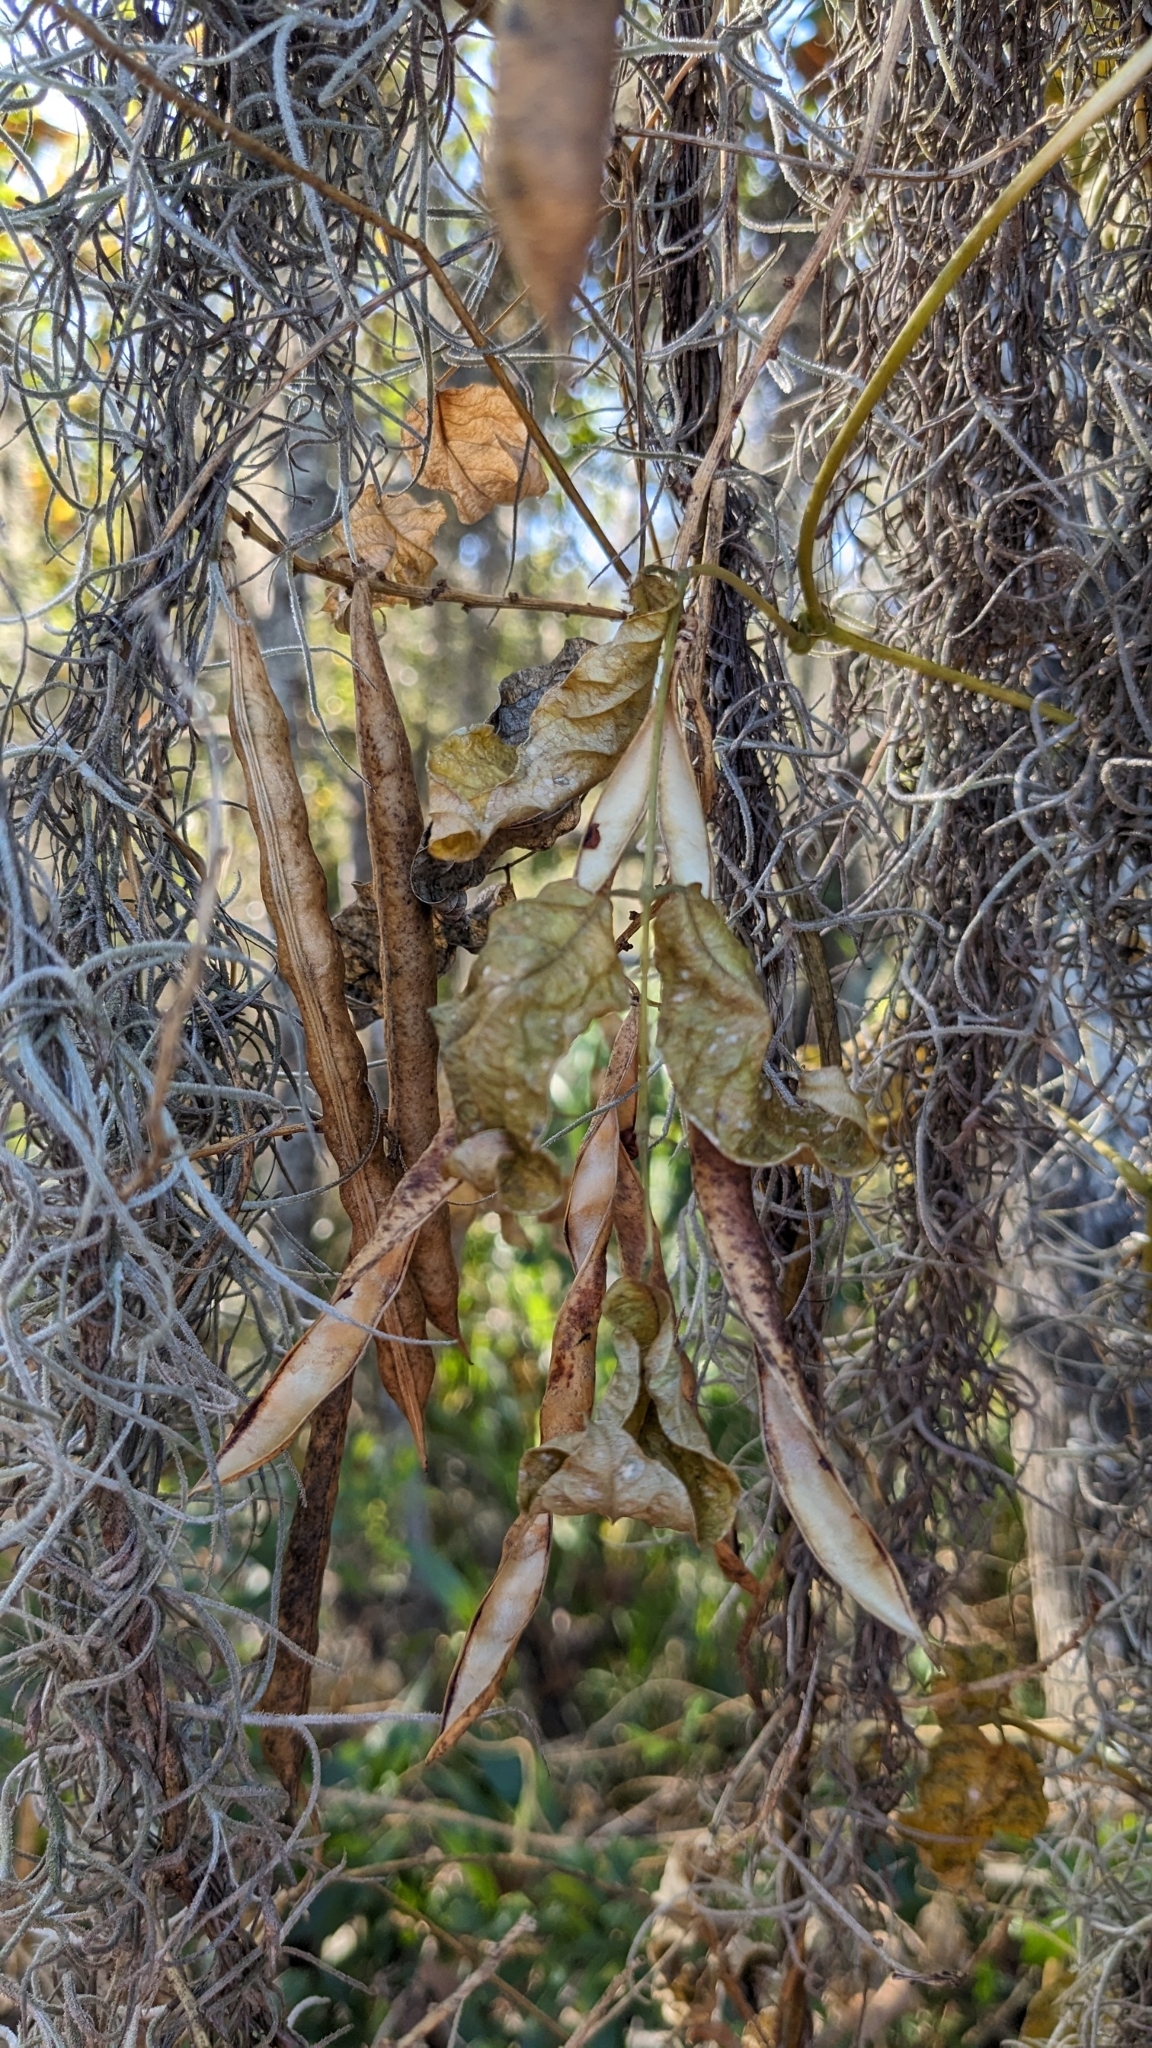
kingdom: Plantae
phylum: Tracheophyta
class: Magnoliopsida
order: Fabales
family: Fabaceae
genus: Apios
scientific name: Apios americana
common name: American potato-bean
